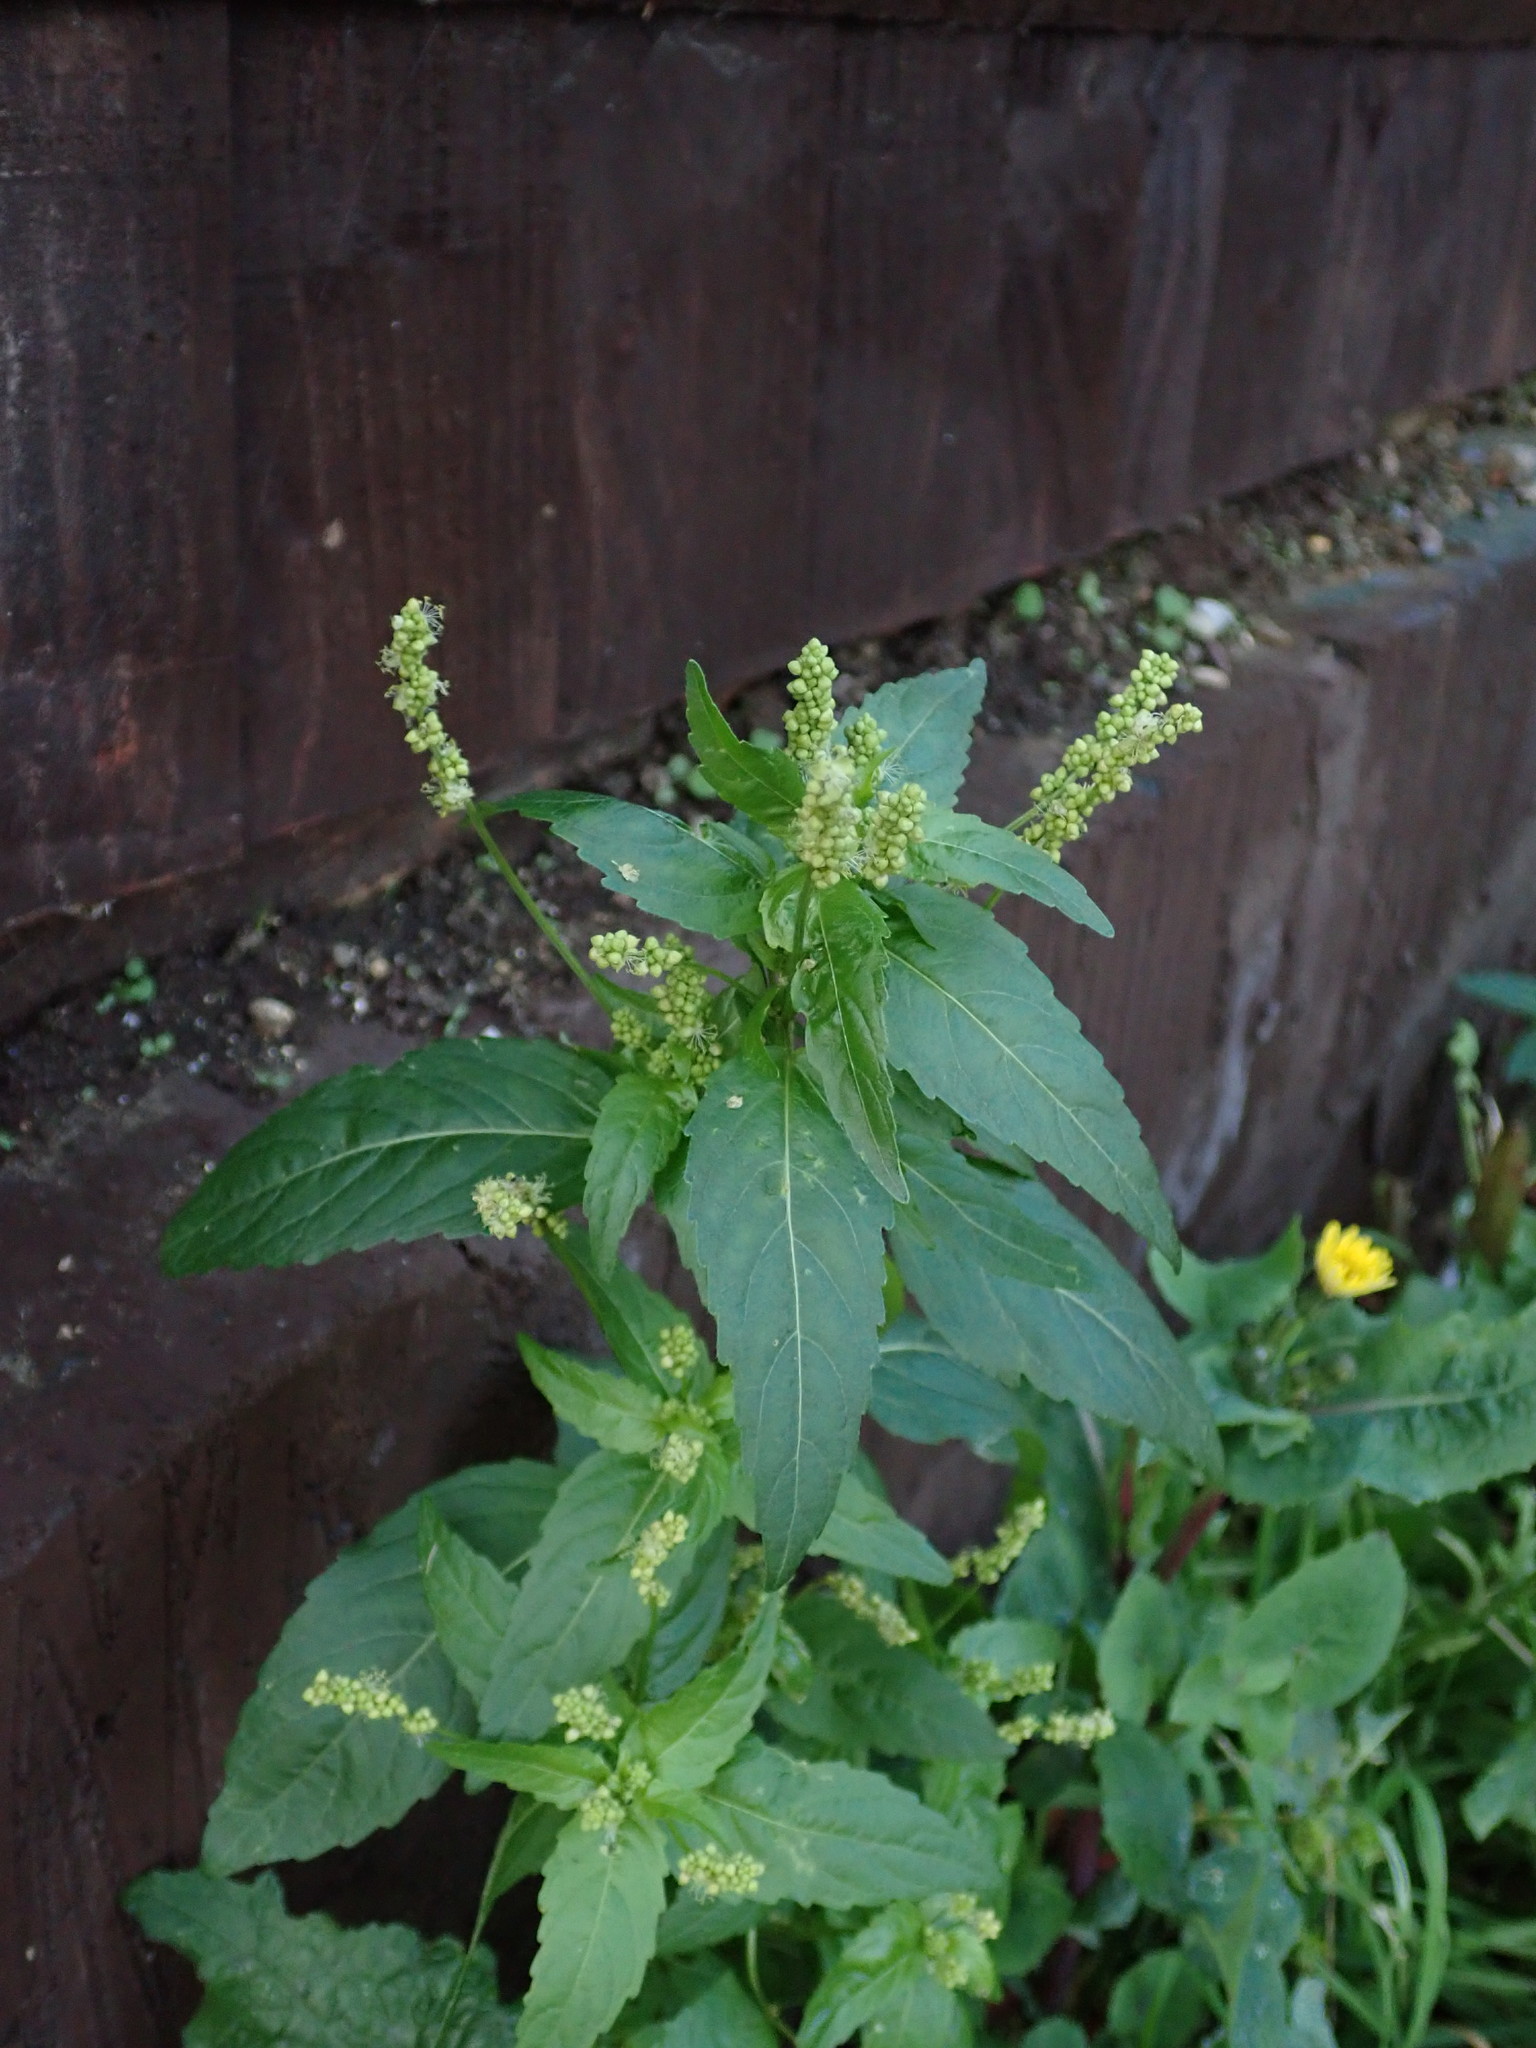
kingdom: Plantae
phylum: Tracheophyta
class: Magnoliopsida
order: Malpighiales
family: Euphorbiaceae
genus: Mercurialis
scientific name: Mercurialis annua
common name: Annual mercury
